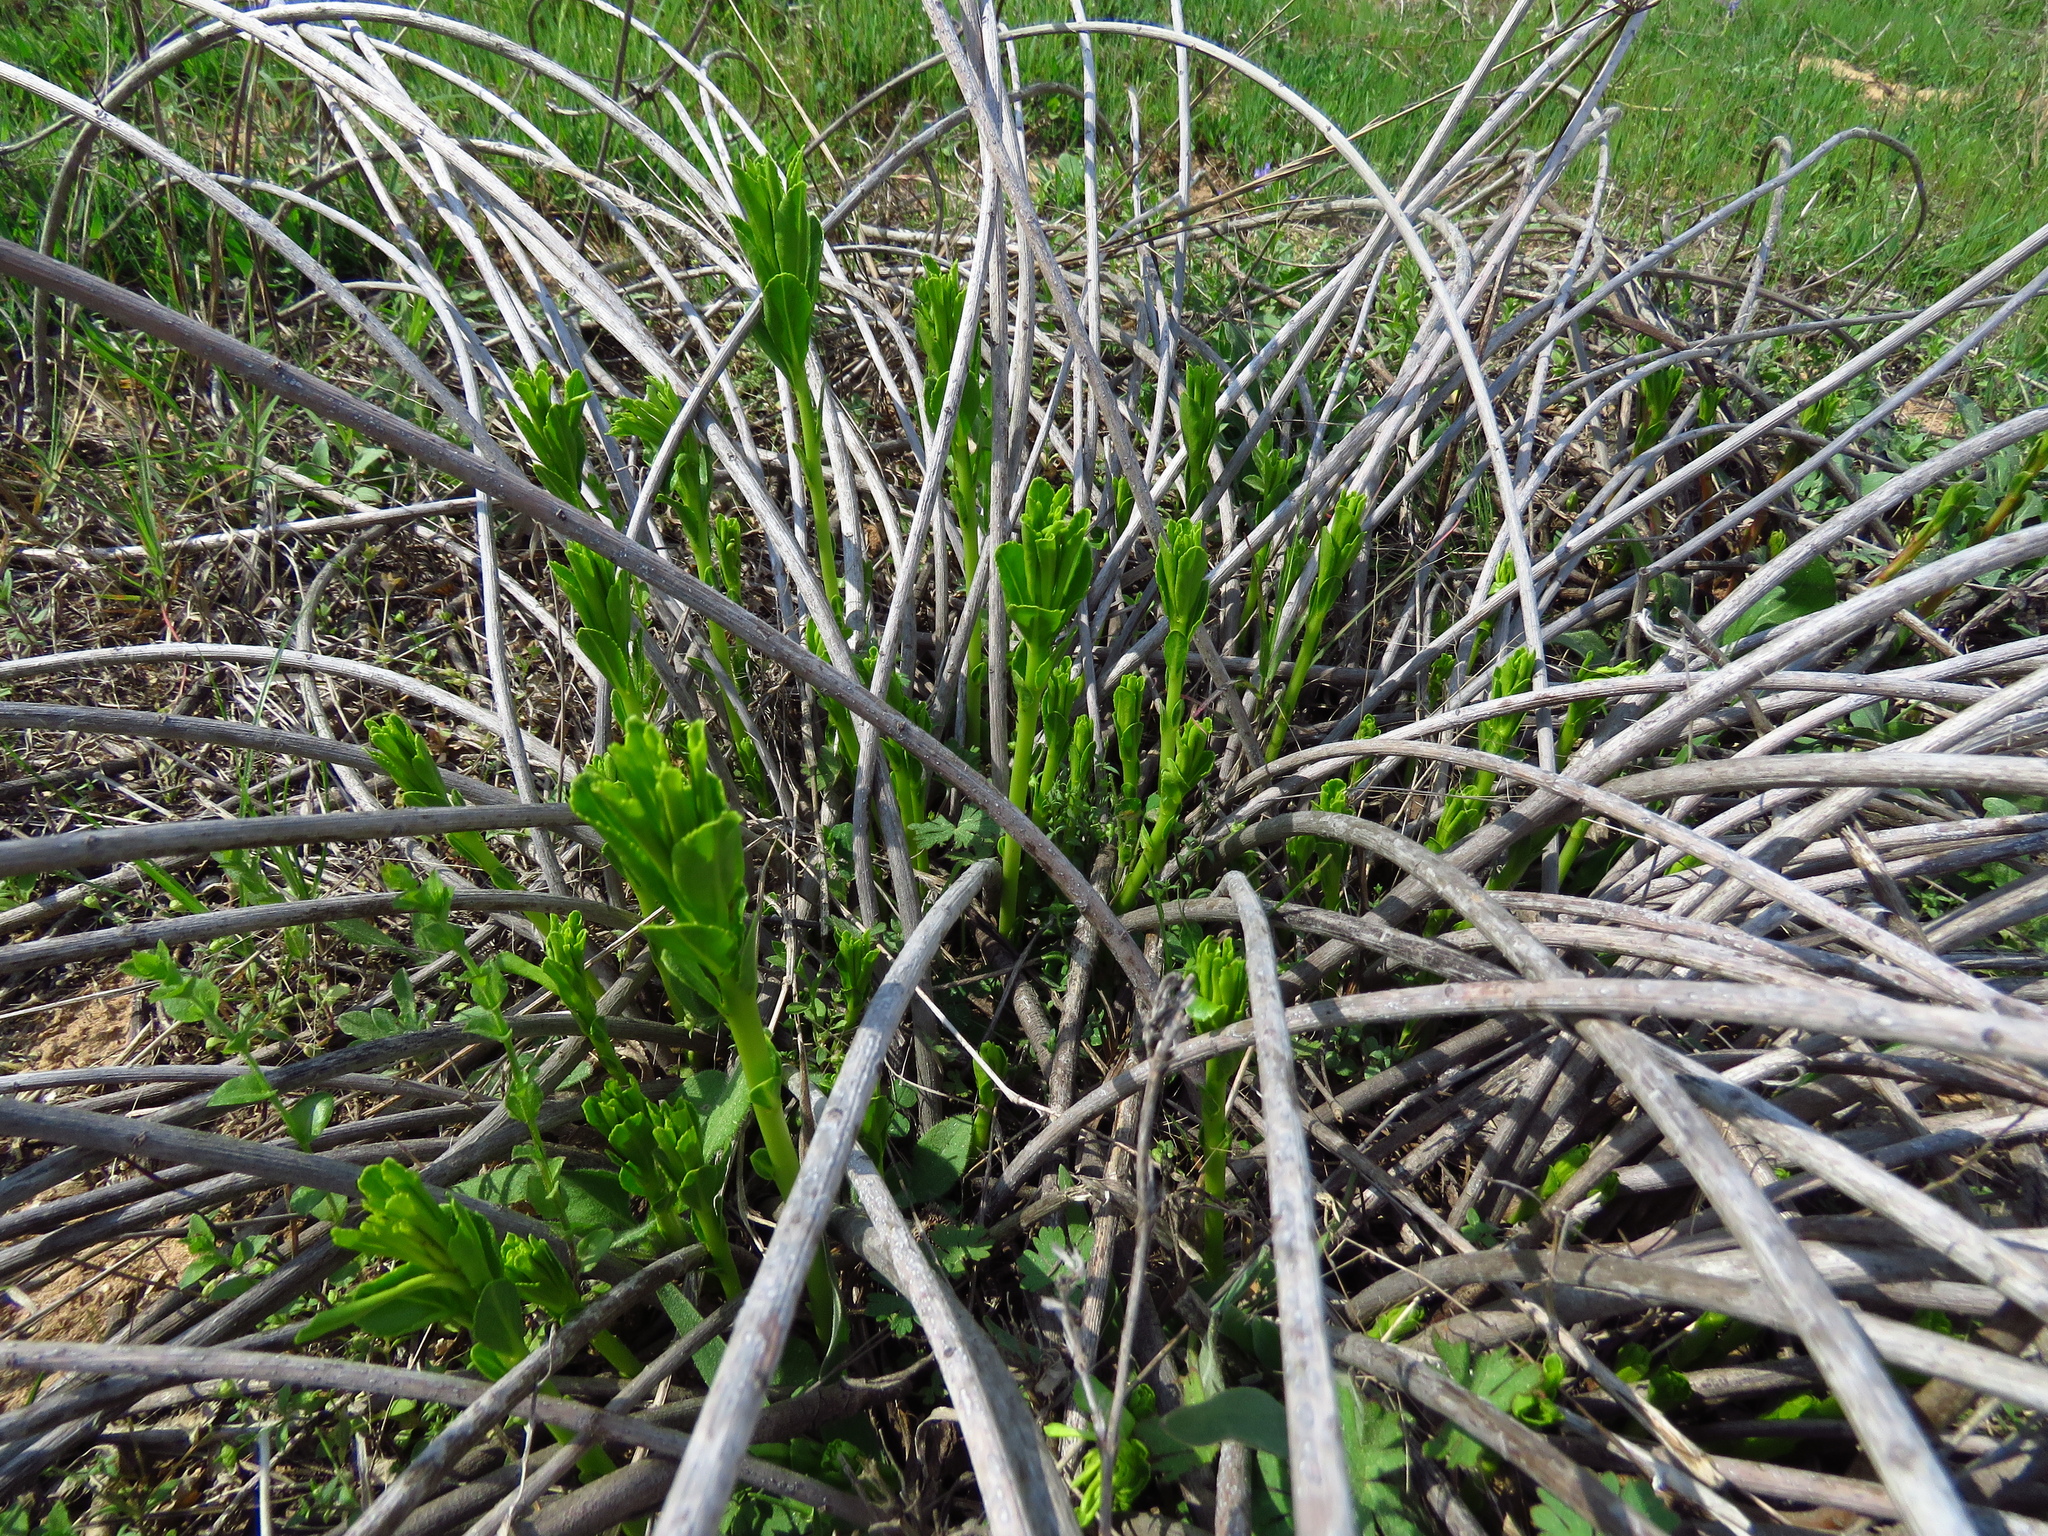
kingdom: Plantae
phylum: Tracheophyta
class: Magnoliopsida
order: Malpighiales
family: Euphorbiaceae
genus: Stillingia
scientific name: Stillingia sylvatica
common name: Queen's-delight
